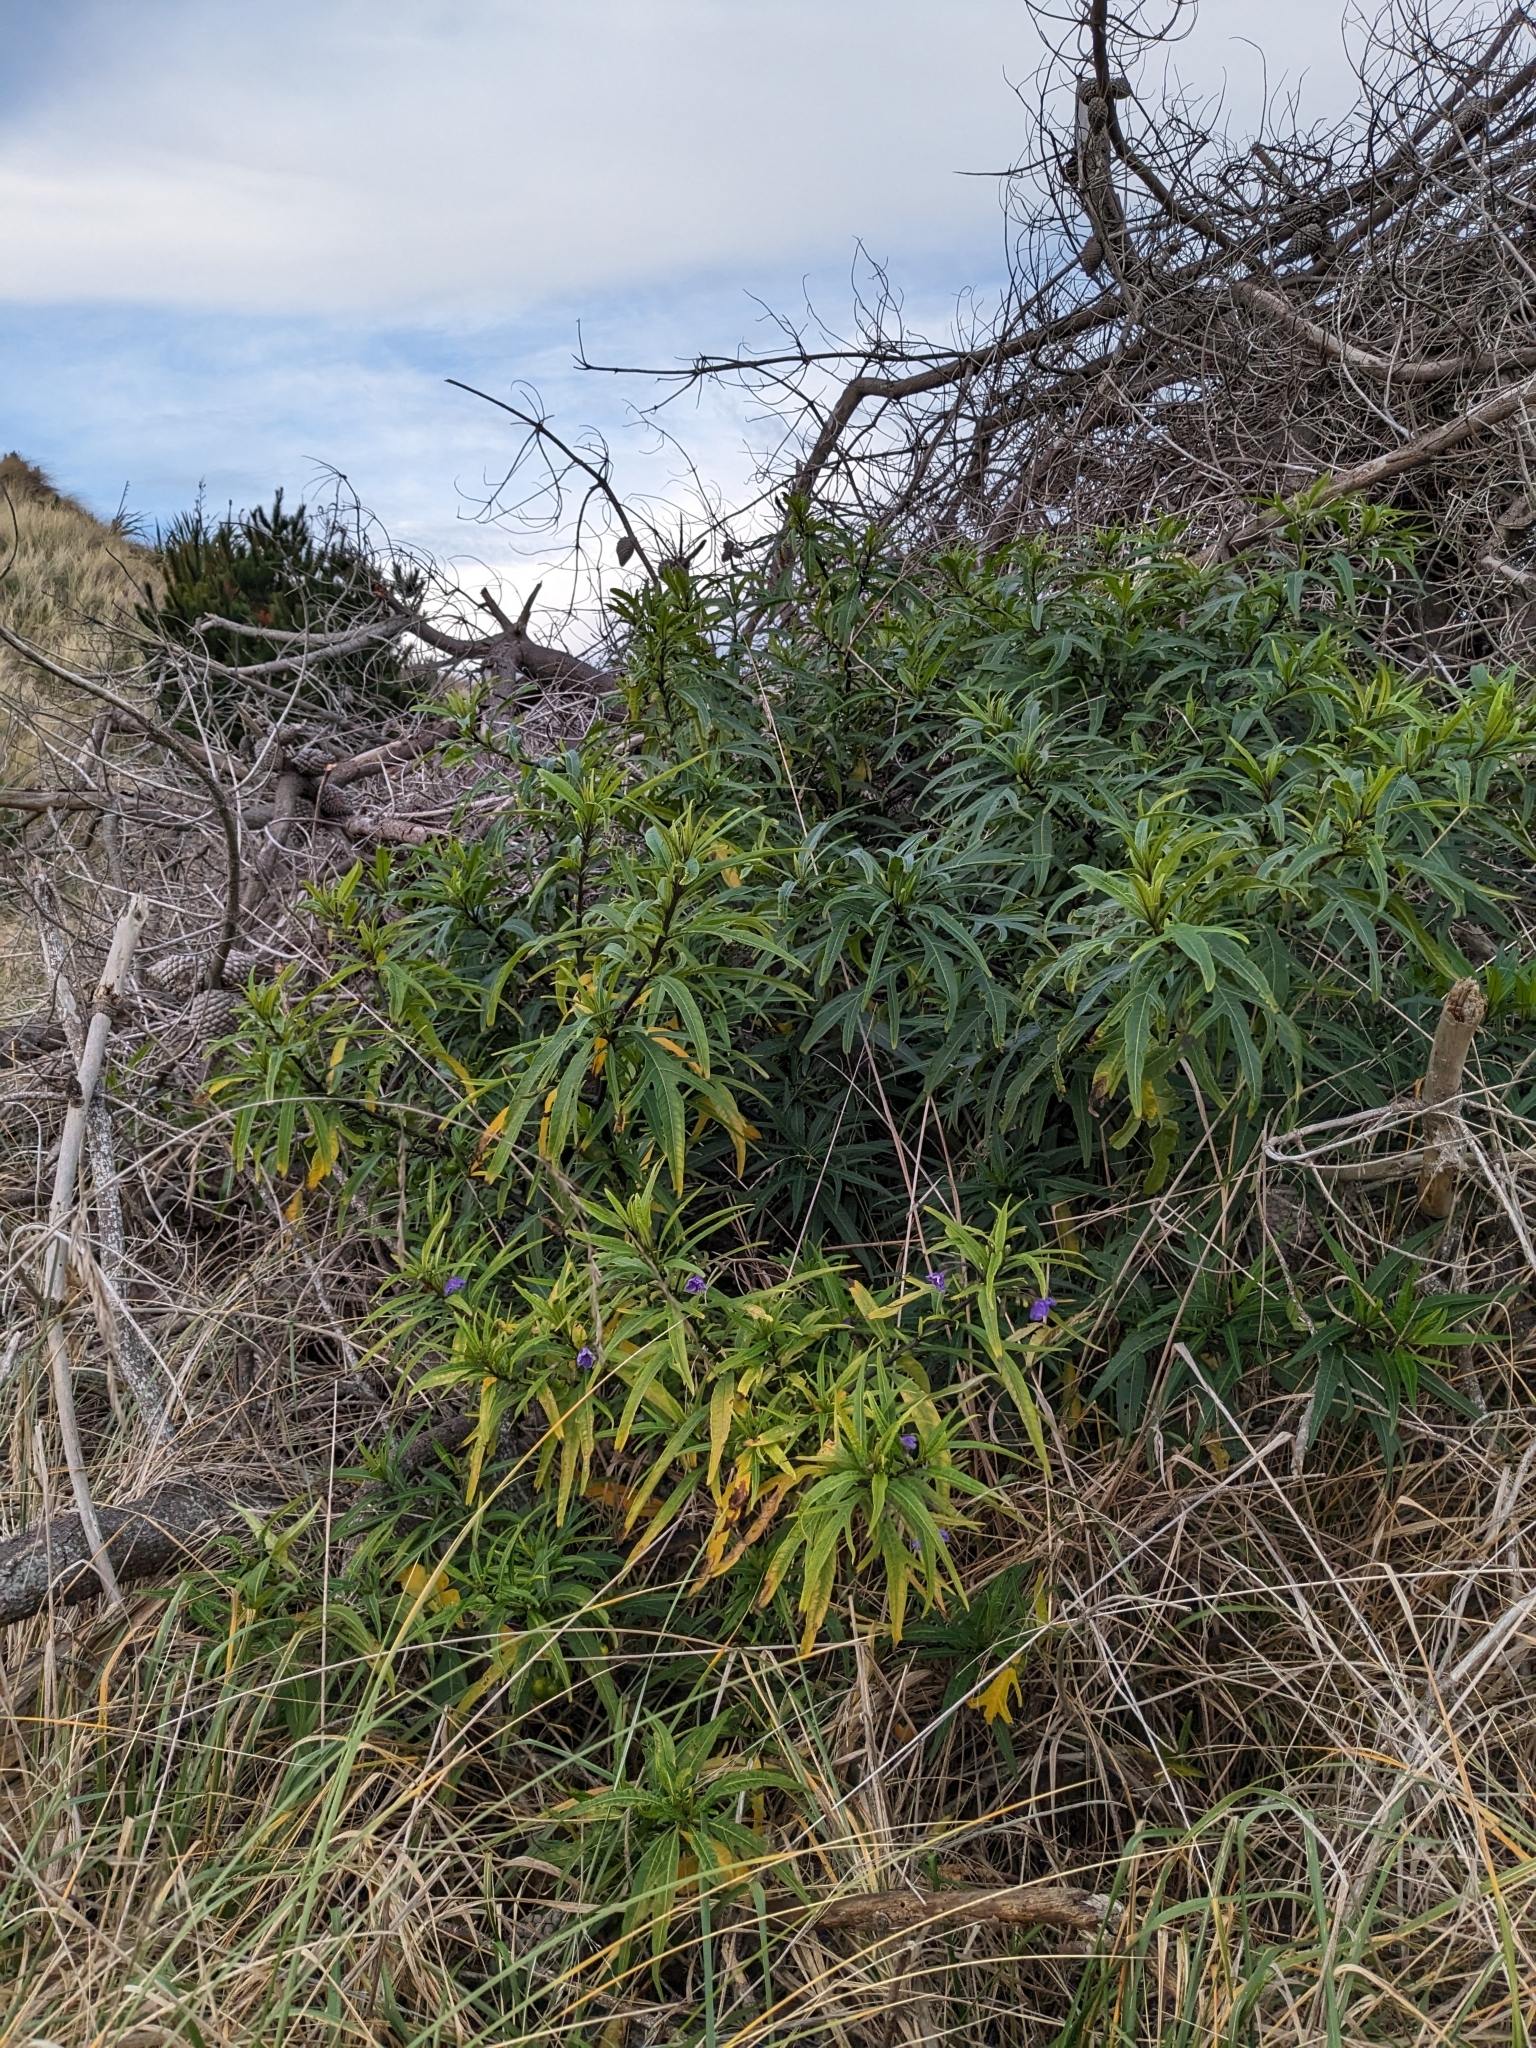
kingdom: Plantae
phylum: Tracheophyta
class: Magnoliopsida
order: Solanales
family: Solanaceae
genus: Solanum
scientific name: Solanum laciniatum
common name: Kangaroo-apple
